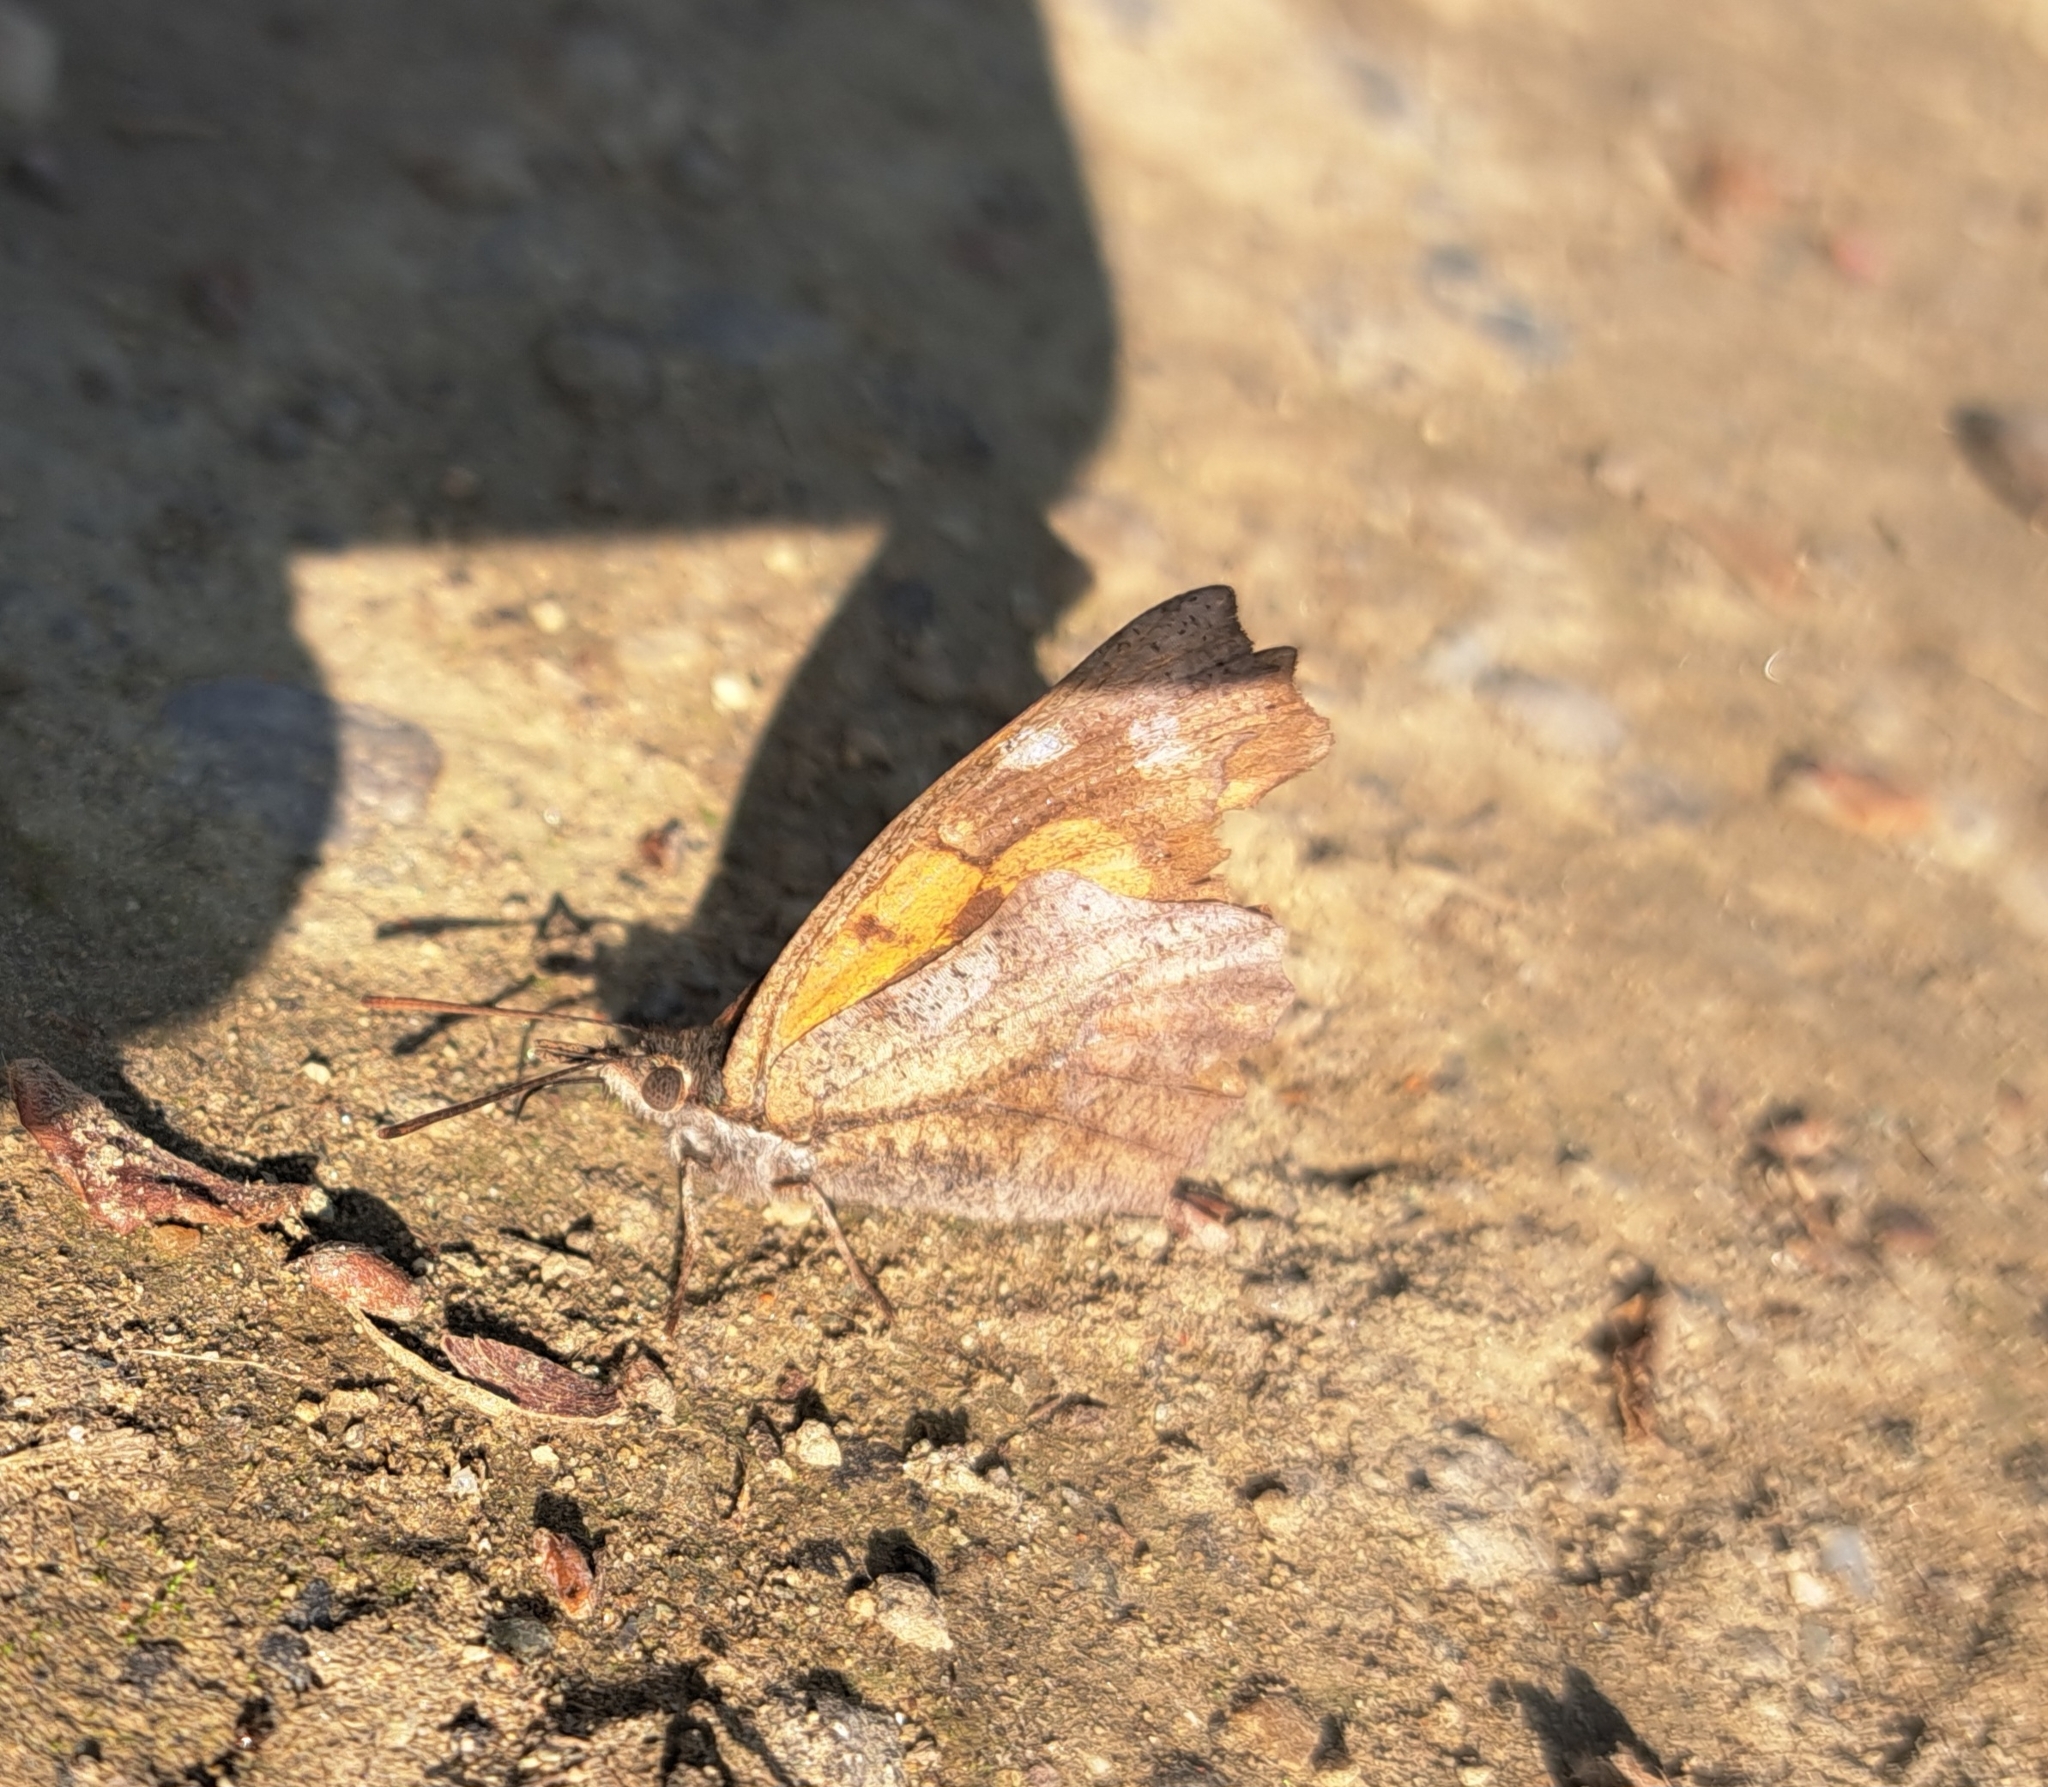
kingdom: Animalia
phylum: Arthropoda
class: Insecta
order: Lepidoptera
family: Nymphalidae
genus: Libythea
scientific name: Libythea celtis
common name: Nettle-tree butterfly
